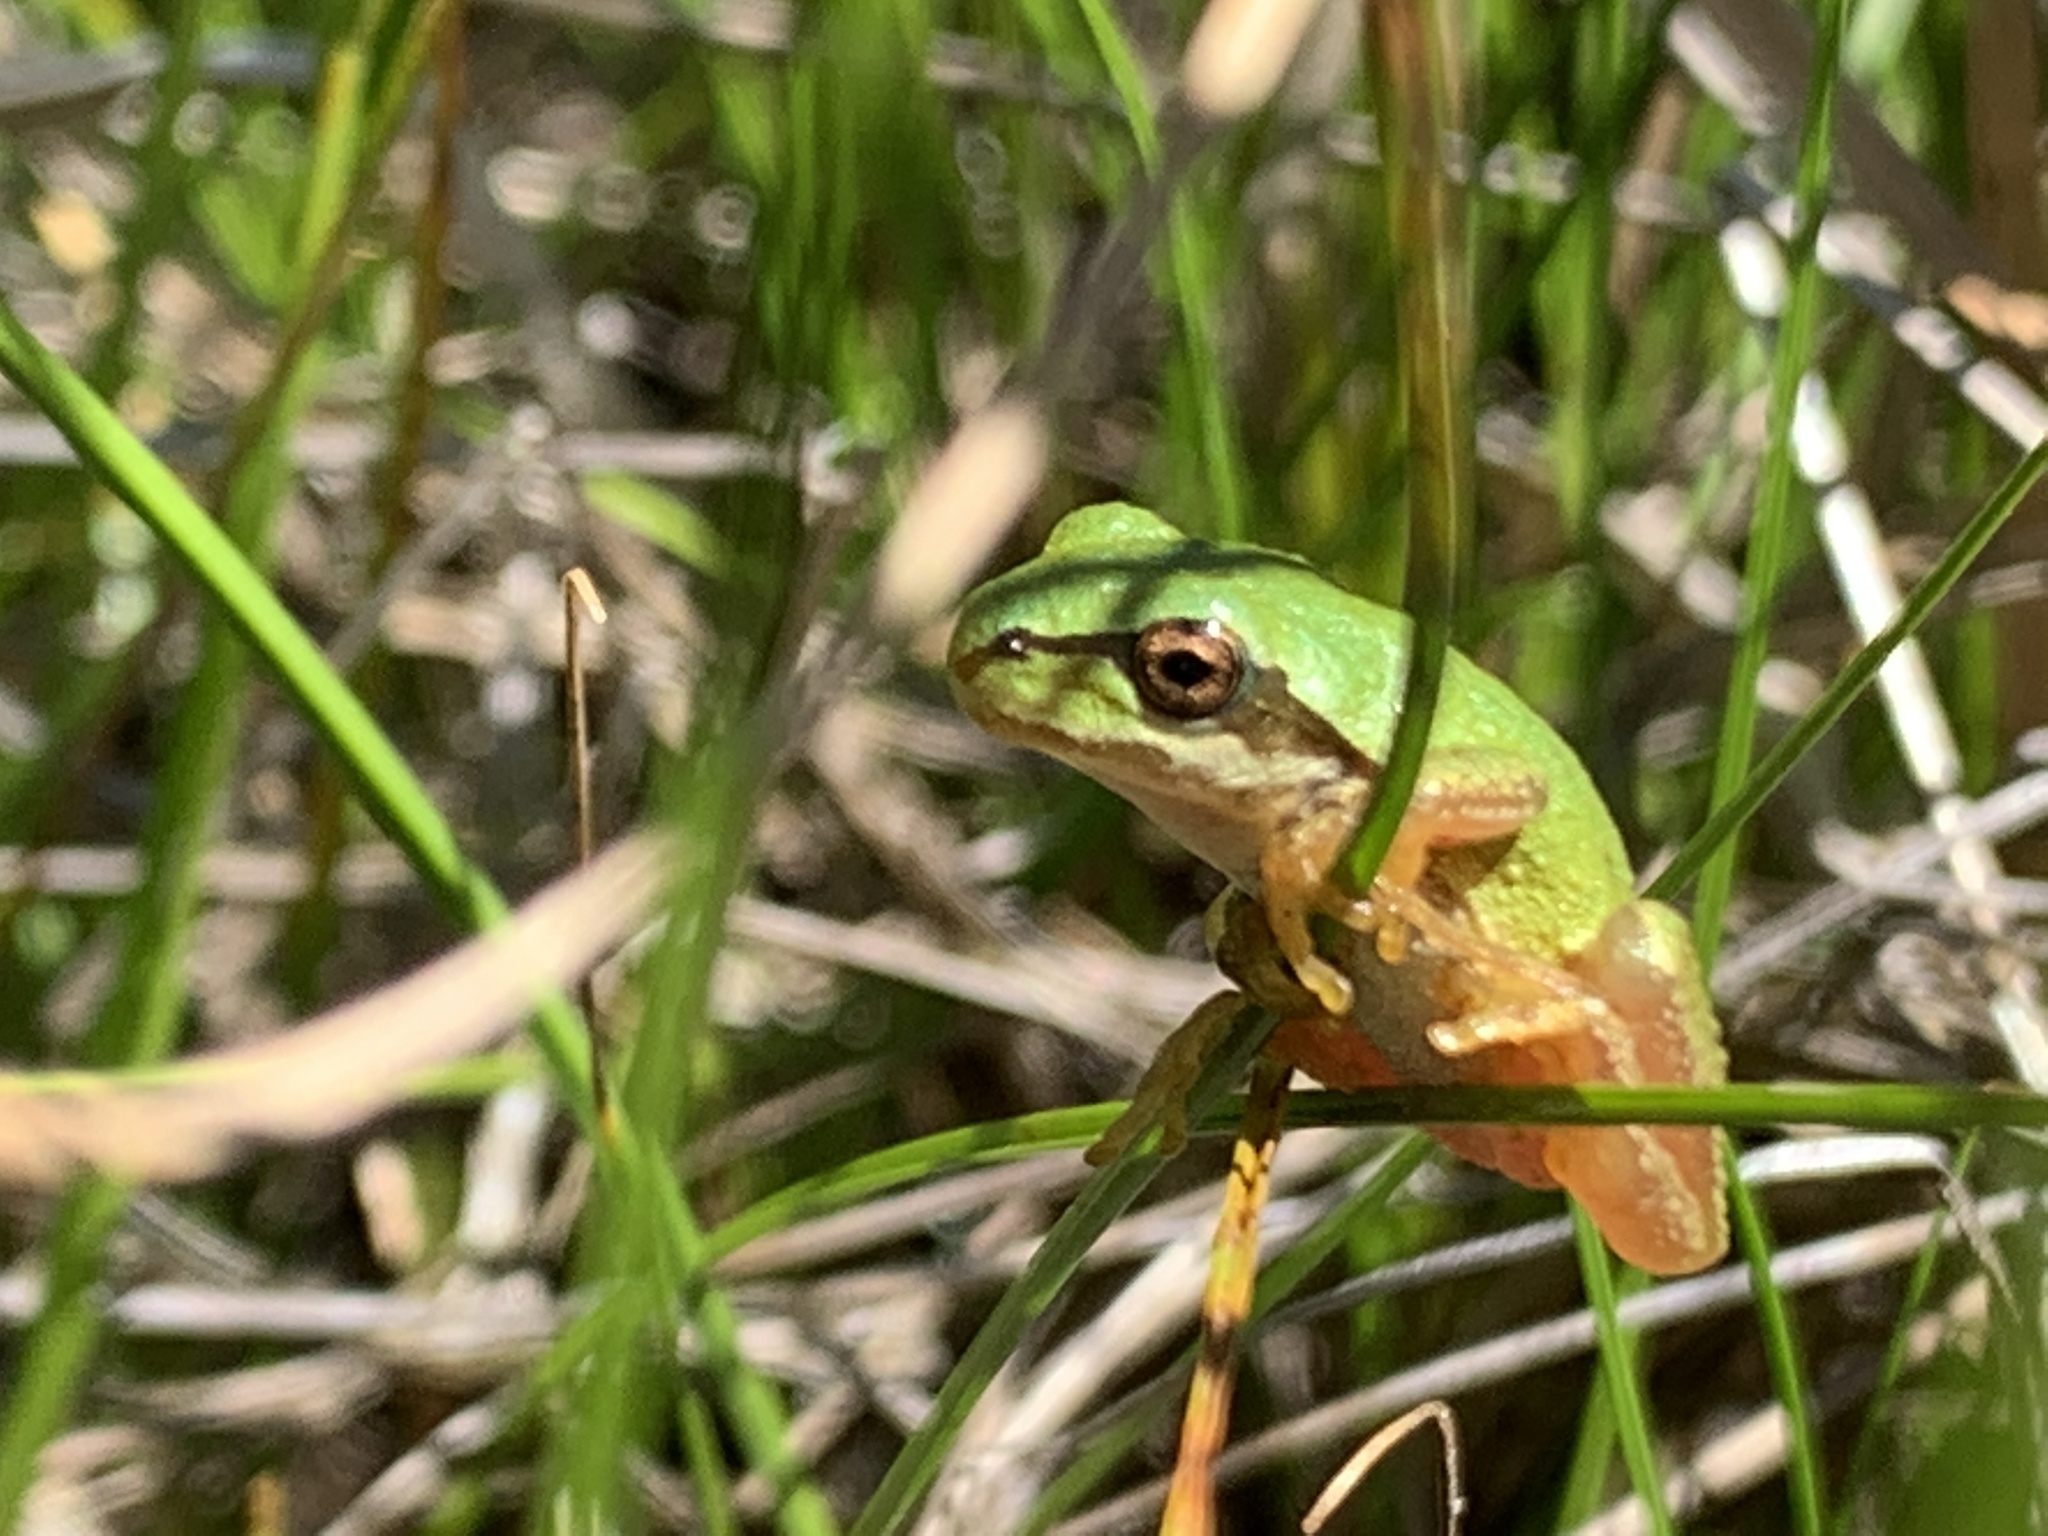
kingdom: Animalia
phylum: Chordata
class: Amphibia
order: Anura
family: Hylidae
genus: Pseudacris
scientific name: Pseudacris regilla
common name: Pacific chorus frog
